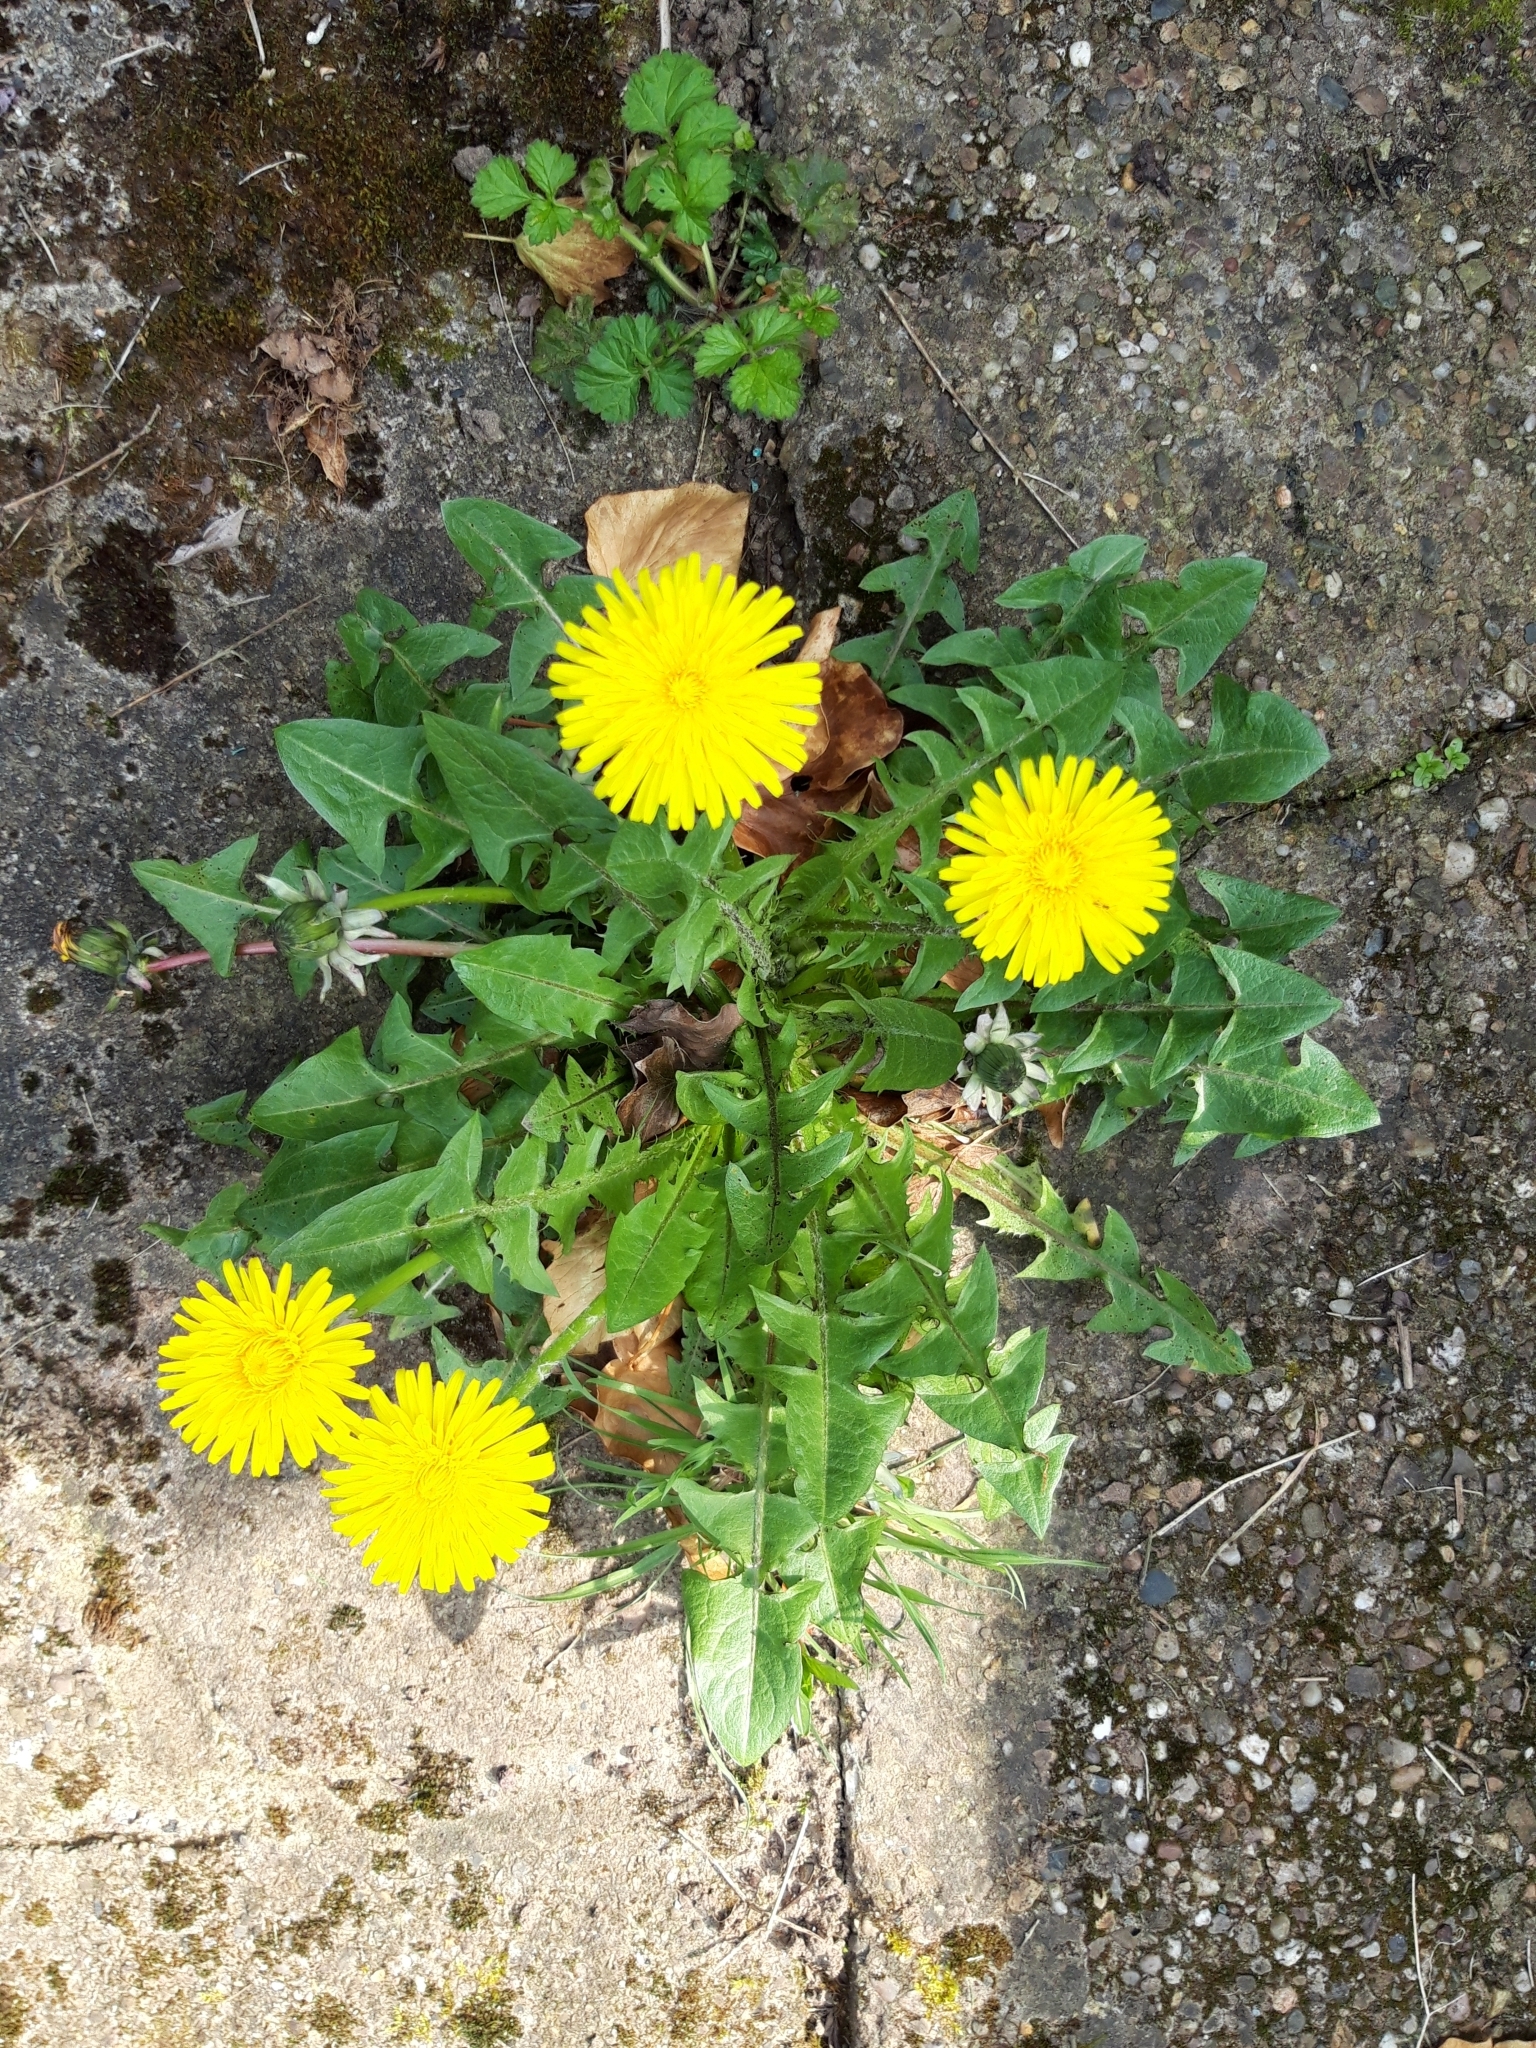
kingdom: Plantae
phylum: Tracheophyta
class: Magnoliopsida
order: Asterales
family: Asteraceae
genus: Taraxacum
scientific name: Taraxacum officinale
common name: Common dandelion
